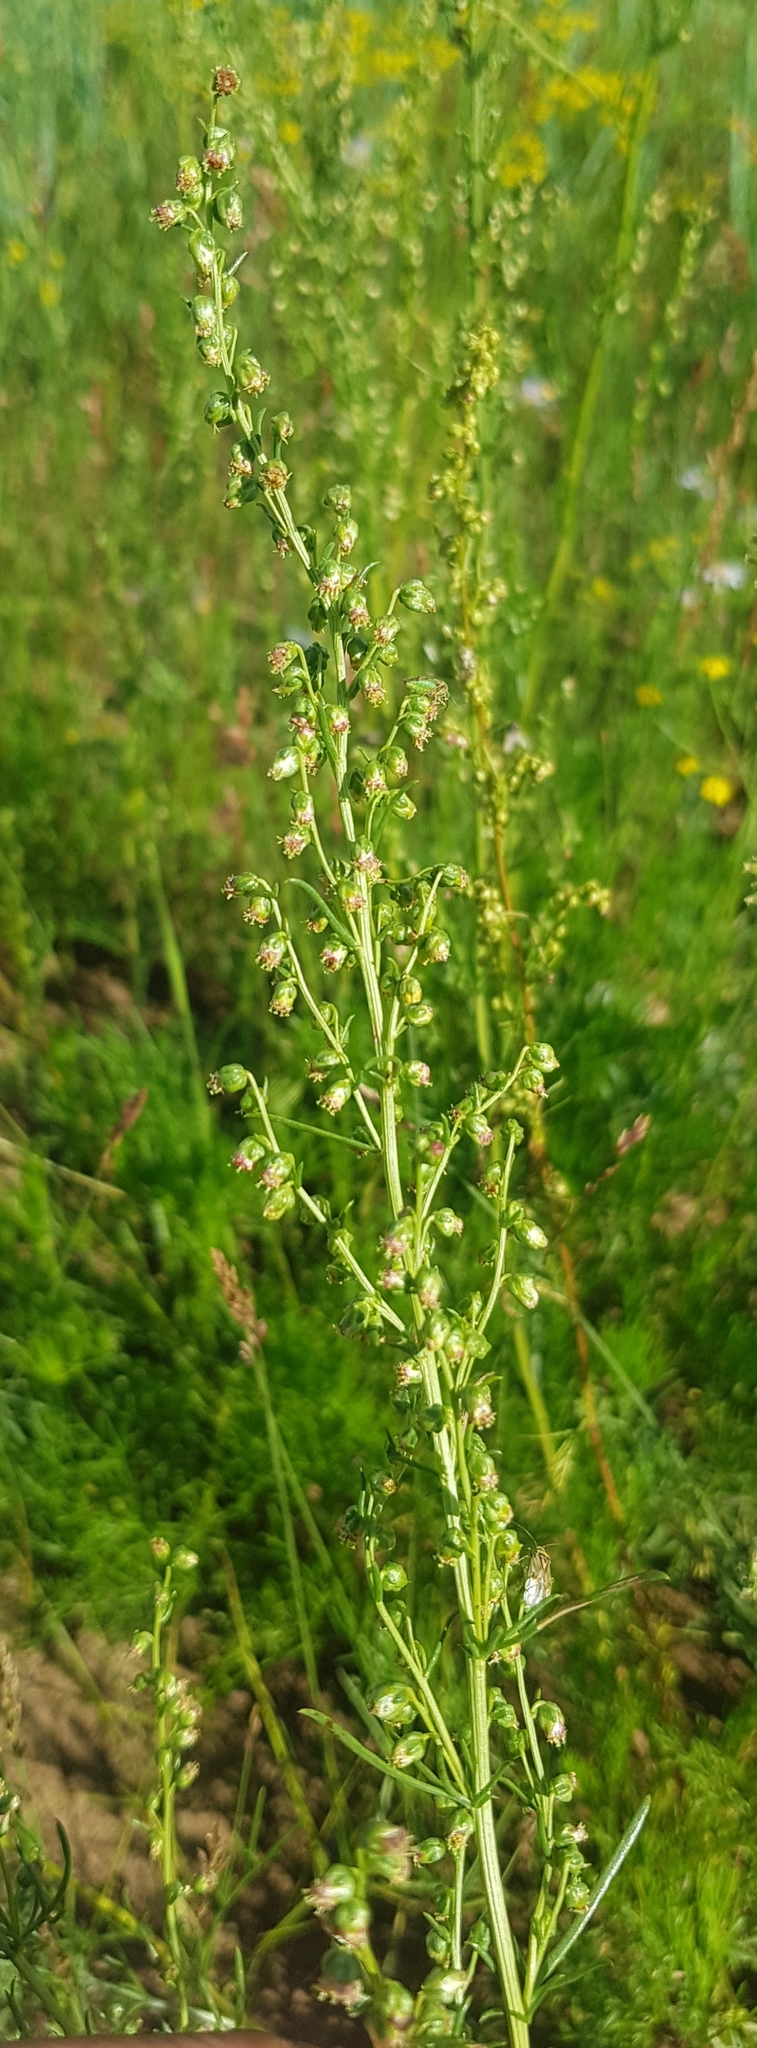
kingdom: Plantae
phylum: Tracheophyta
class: Magnoliopsida
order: Asterales
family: Asteraceae
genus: Artemisia
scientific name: Artemisia scoparia
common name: Redstem wormwood
